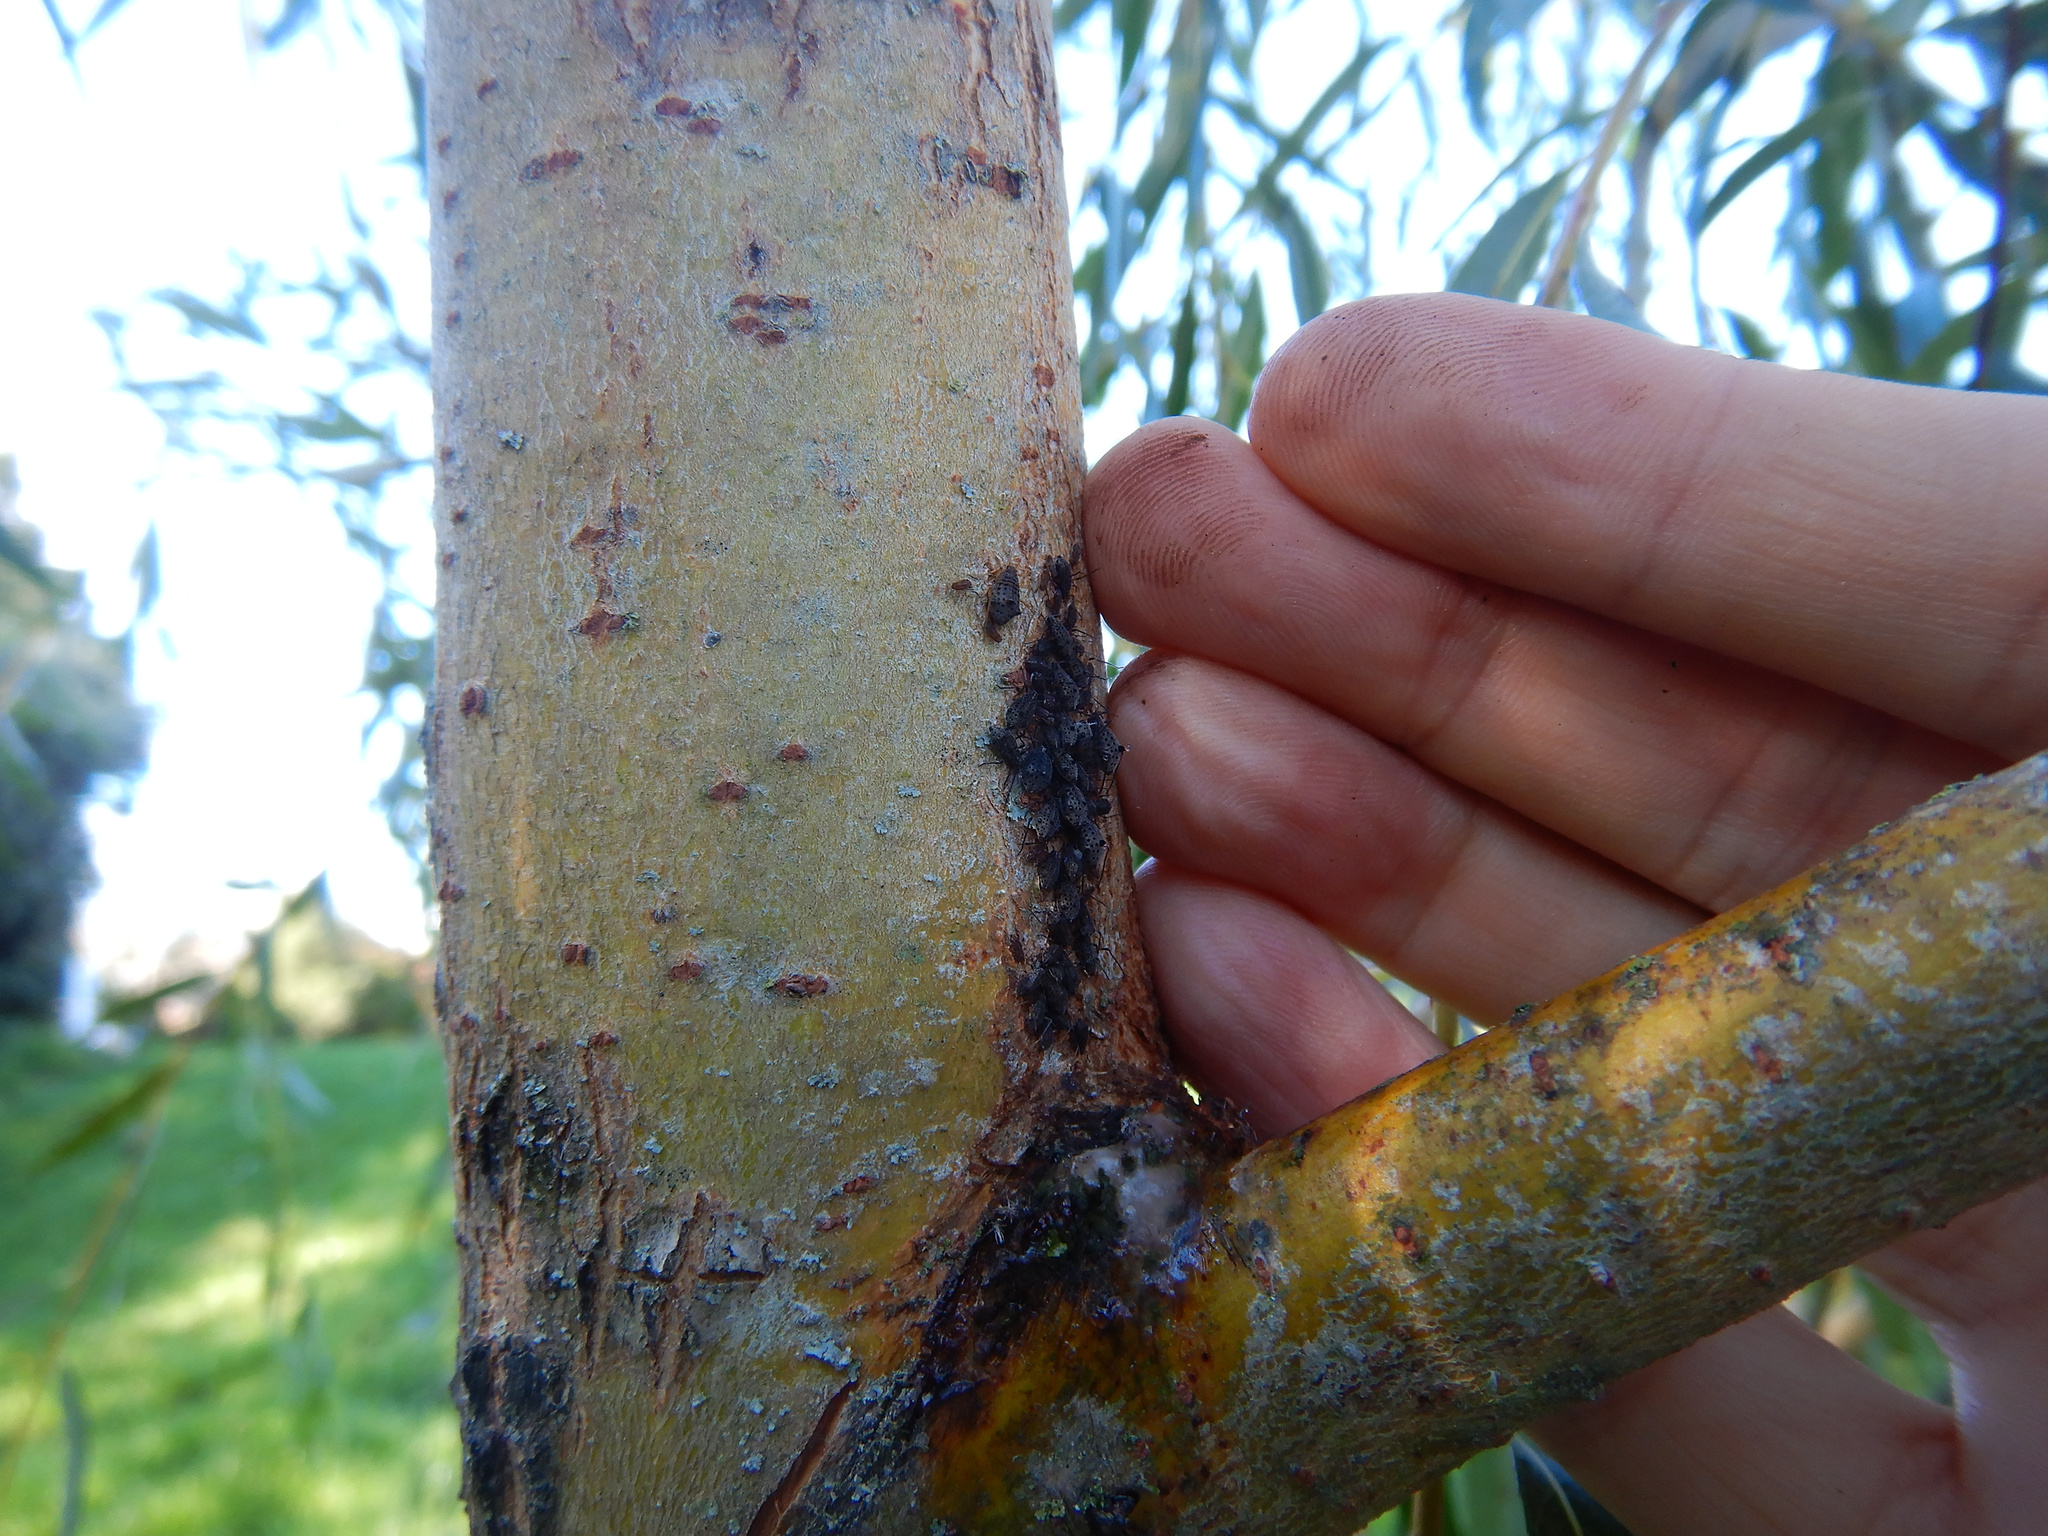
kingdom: Animalia
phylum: Arthropoda
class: Insecta
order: Hemiptera
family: Aphididae
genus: Tuberolachnus
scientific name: Tuberolachnus salignus
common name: Giant willow aphid
